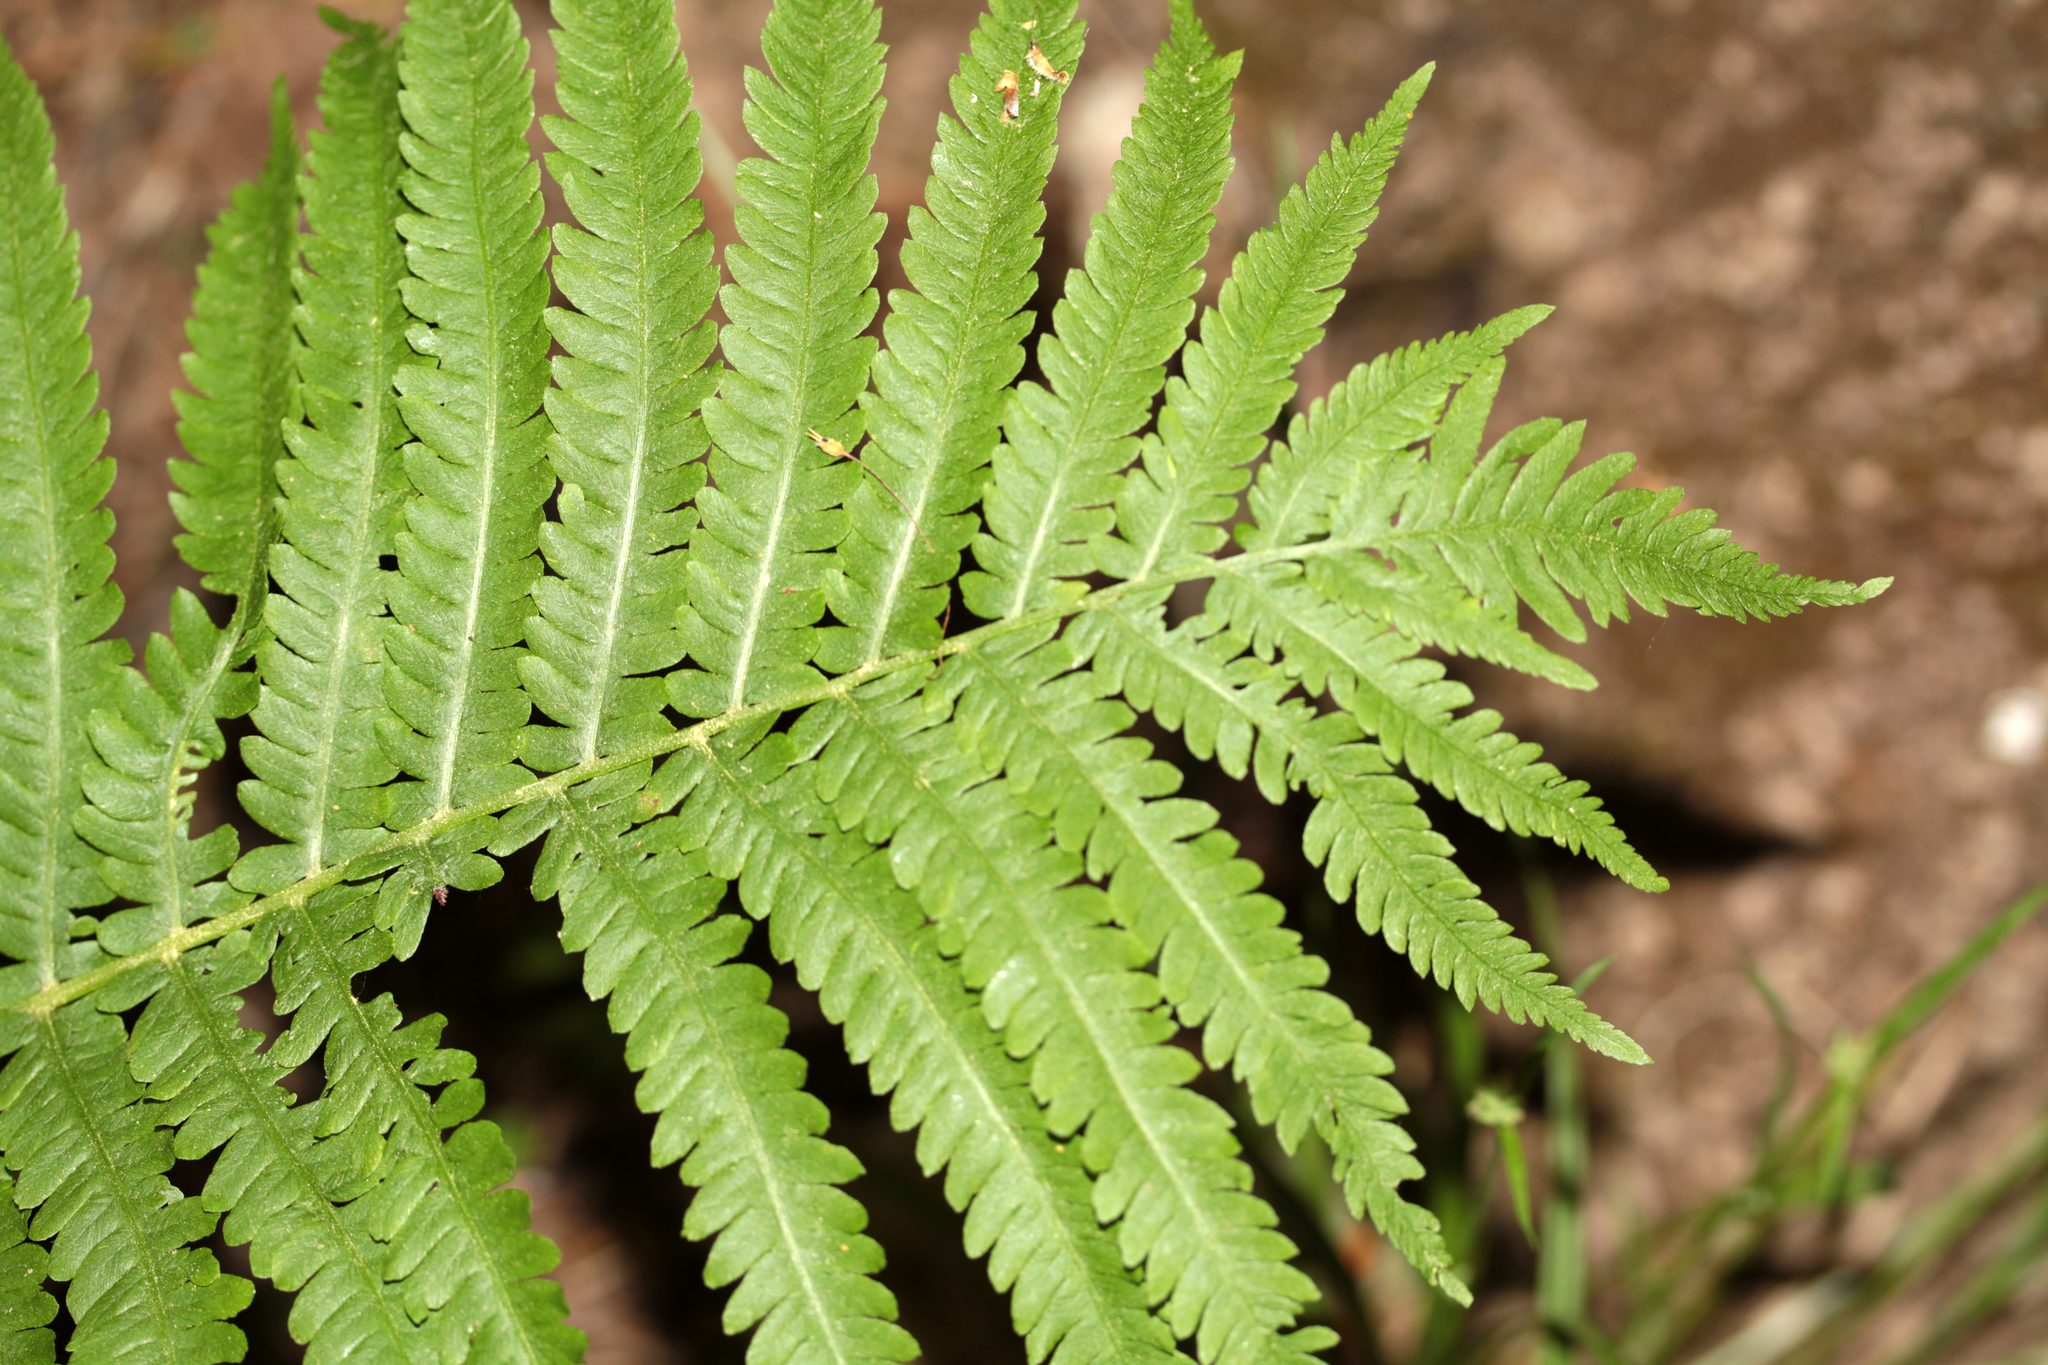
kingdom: Plantae
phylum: Tracheophyta
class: Polypodiopsida
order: Polypodiales
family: Onocleaceae
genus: Matteuccia
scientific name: Matteuccia struthiopteris
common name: Ostrich fern
